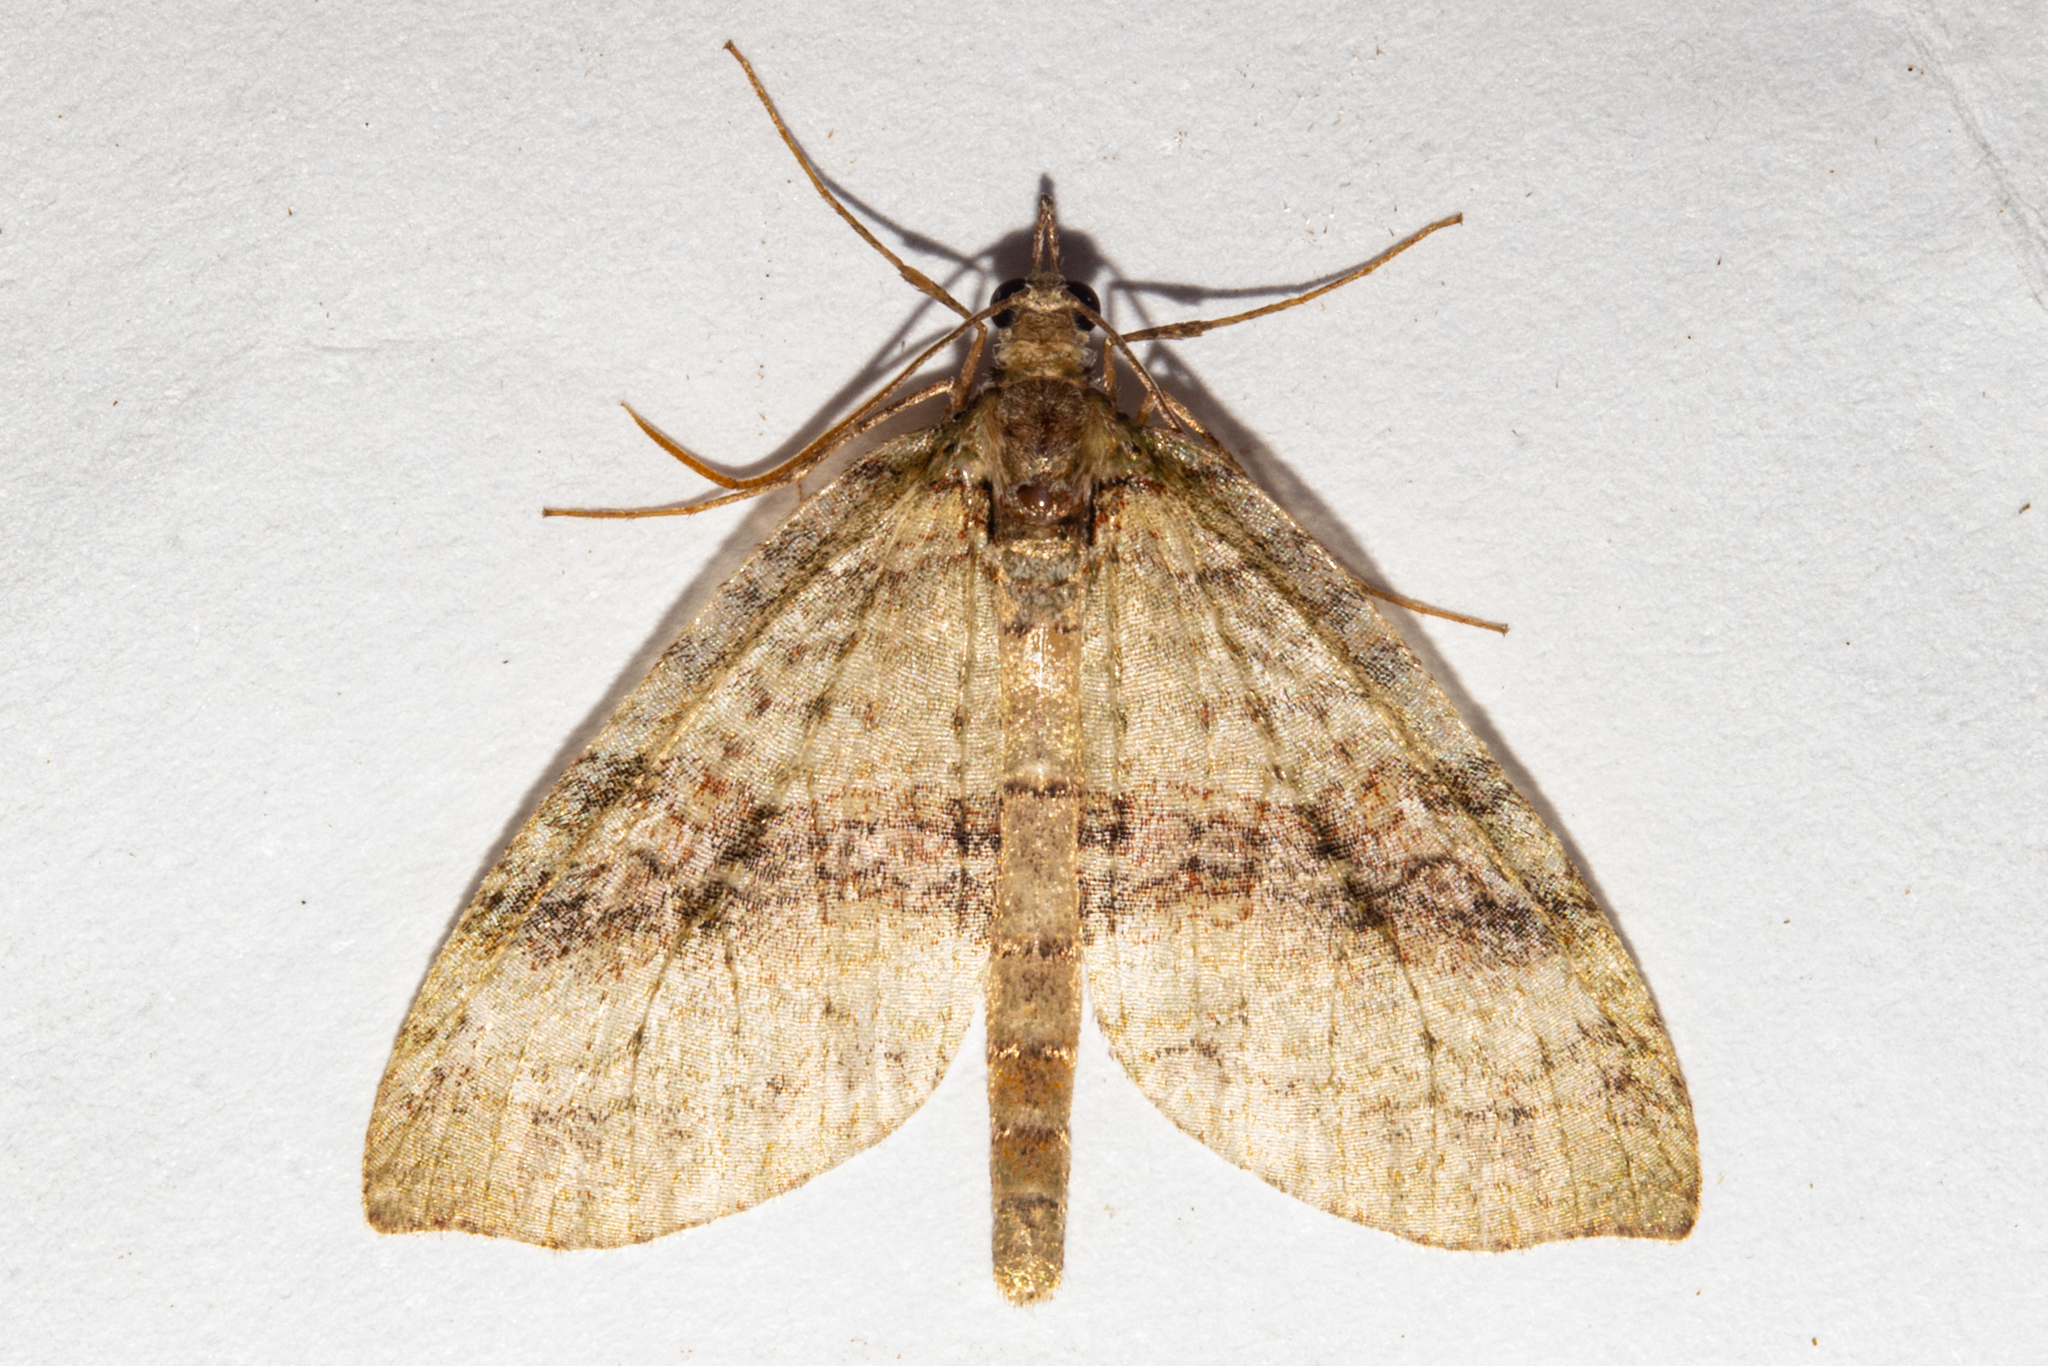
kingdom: Animalia
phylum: Arthropoda
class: Insecta
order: Lepidoptera
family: Geometridae
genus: Tatosoma
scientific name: Tatosoma fasciata
